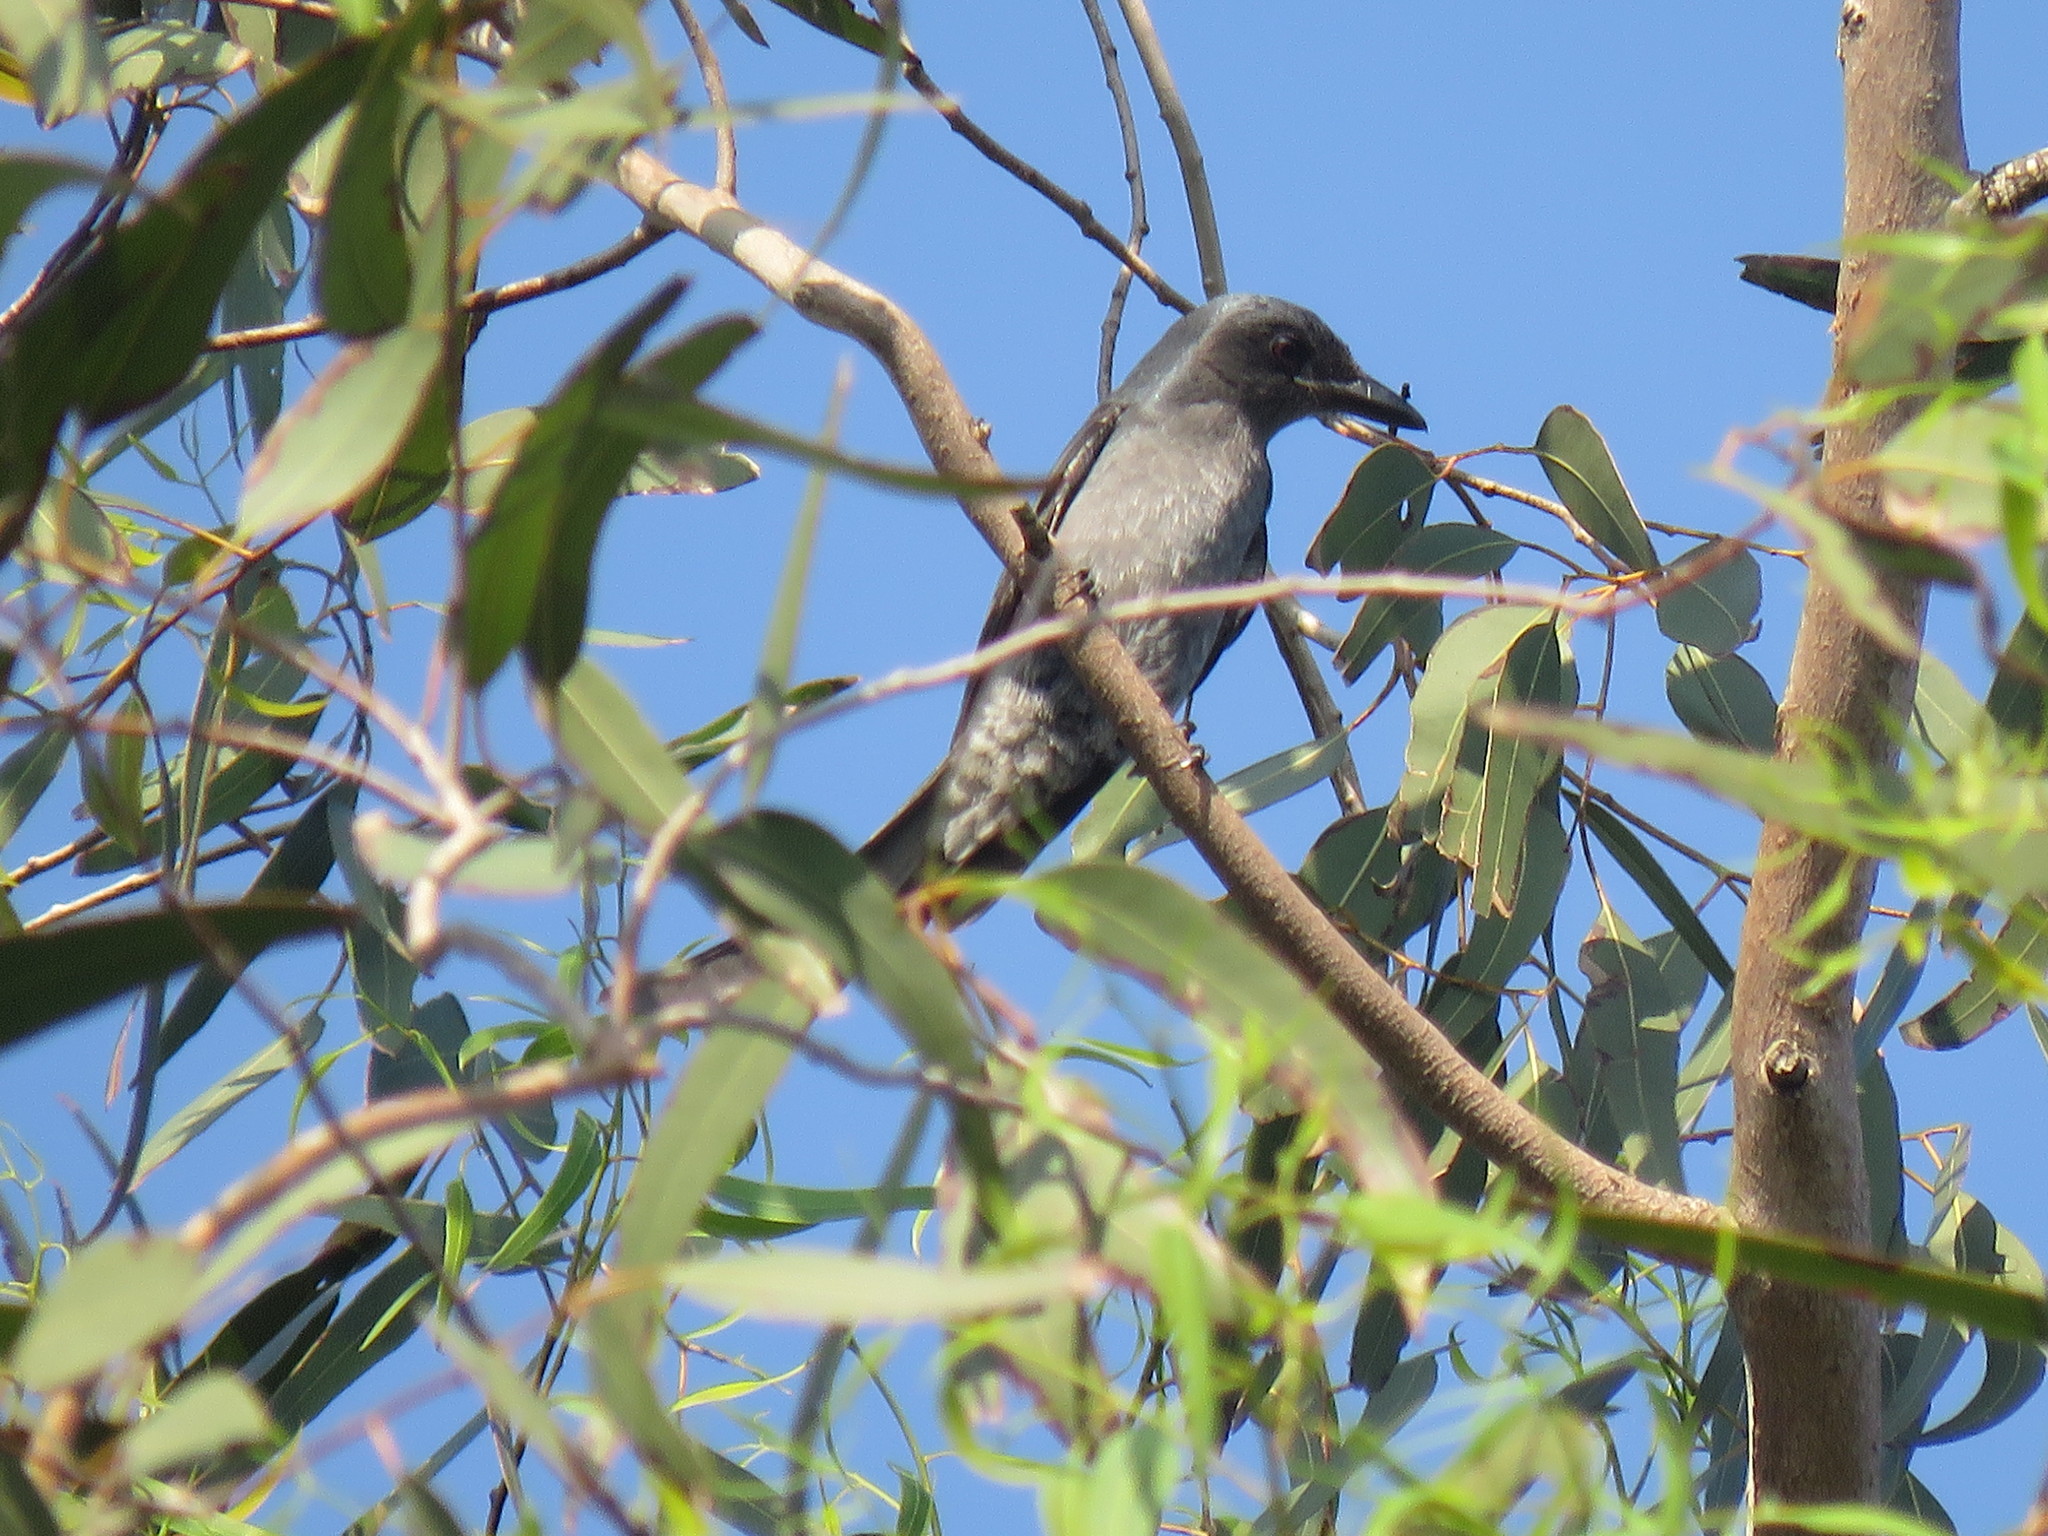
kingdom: Animalia
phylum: Chordata
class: Aves
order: Passeriformes
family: Dicruridae
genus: Dicrurus
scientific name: Dicrurus leucophaeus
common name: Ashy drongo
